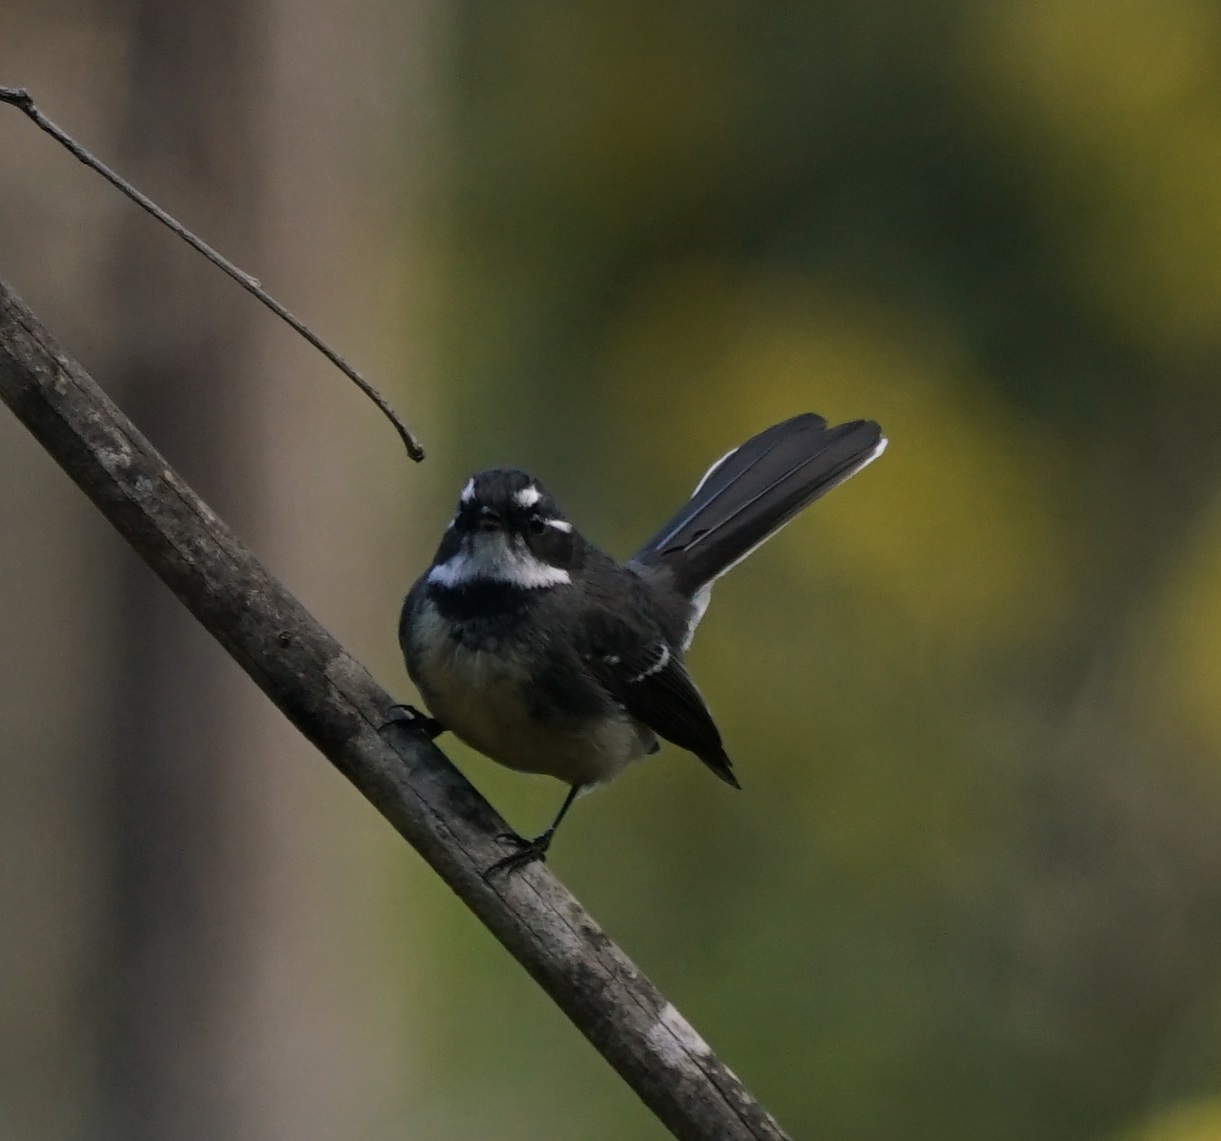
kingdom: Animalia
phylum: Chordata
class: Aves
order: Passeriformes
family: Rhipiduridae
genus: Rhipidura
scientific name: Rhipidura albiscapa
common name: Grey fantail
